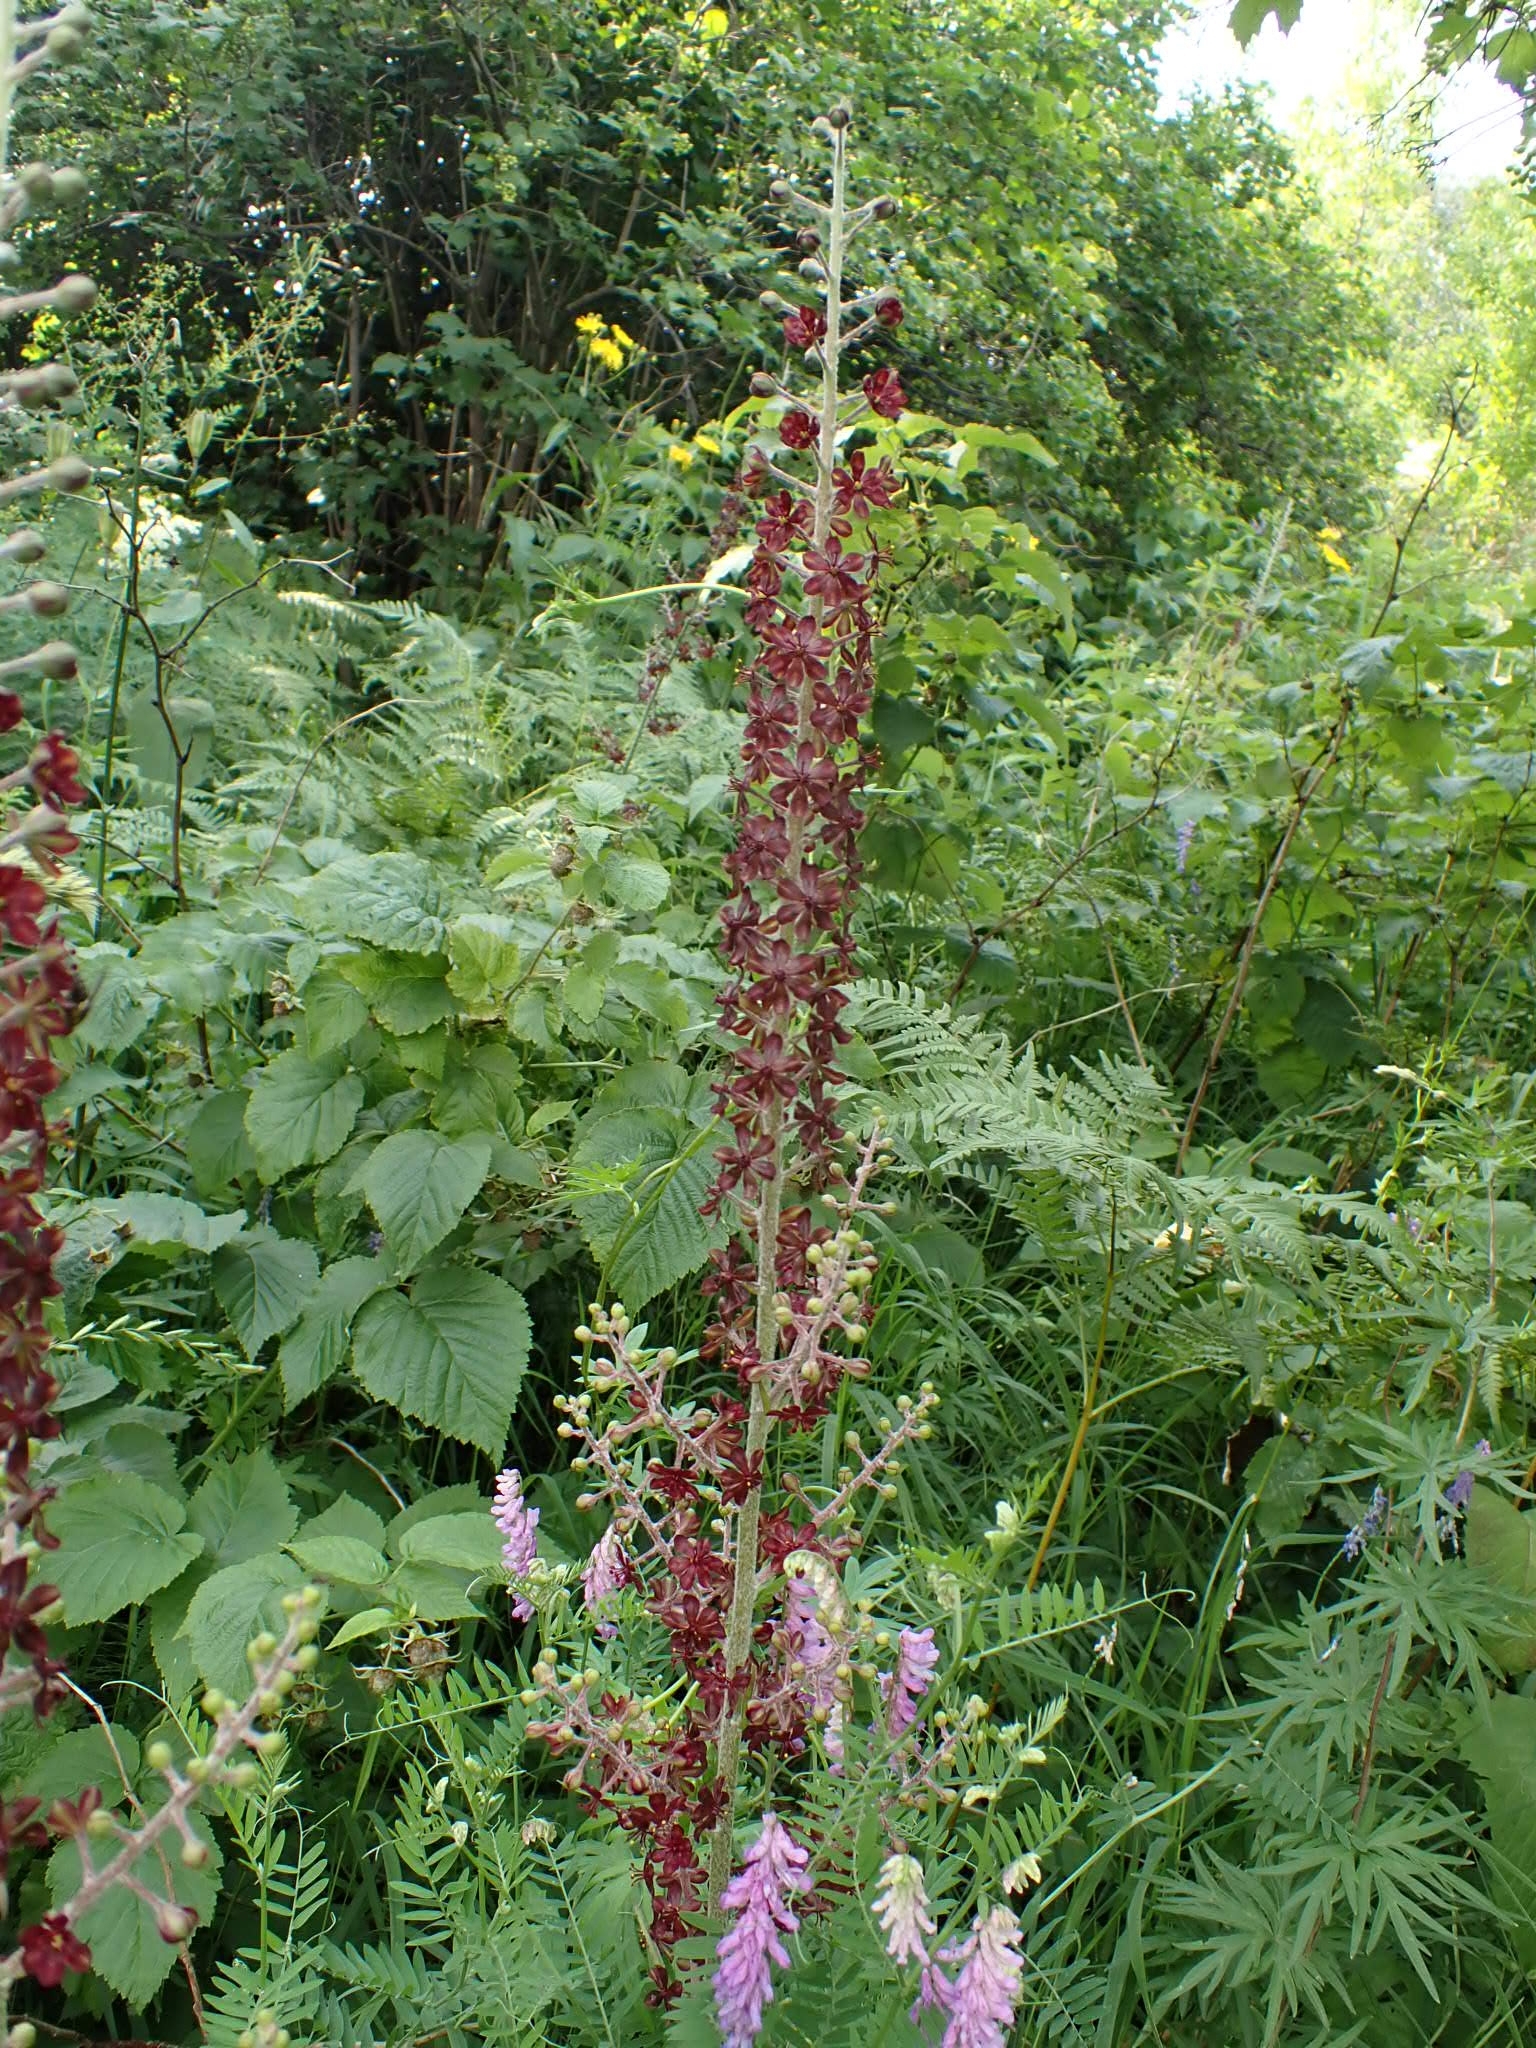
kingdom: Plantae
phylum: Tracheophyta
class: Liliopsida
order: Liliales
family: Melanthiaceae
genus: Veratrum
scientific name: Veratrum nigrum
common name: Black veratrum
